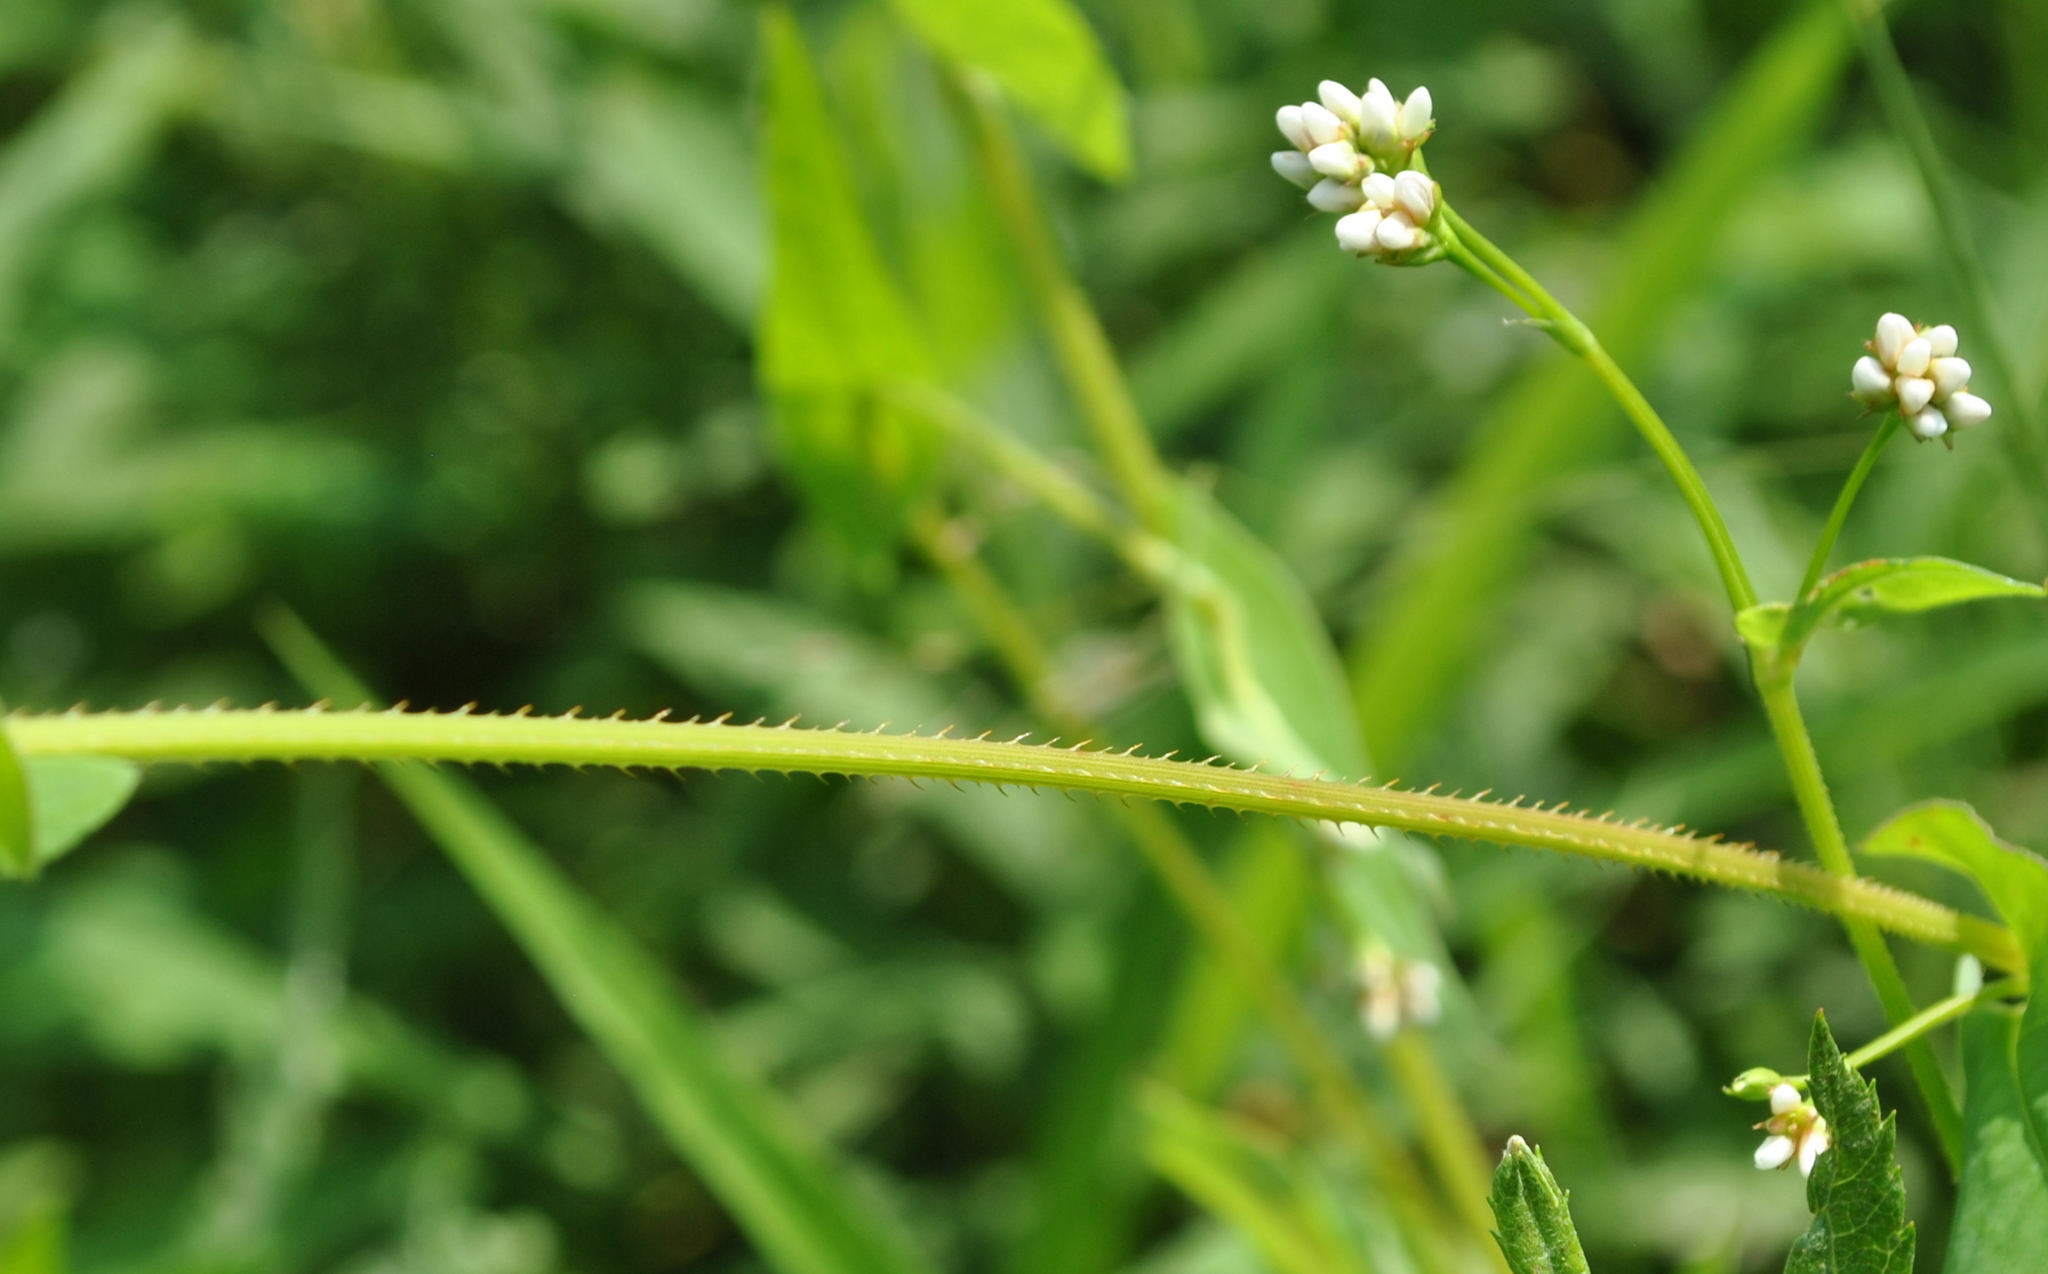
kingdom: Plantae
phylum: Tracheophyta
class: Magnoliopsida
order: Caryophyllales
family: Polygonaceae
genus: Persicaria
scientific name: Persicaria sagittata
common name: American tearthumb
